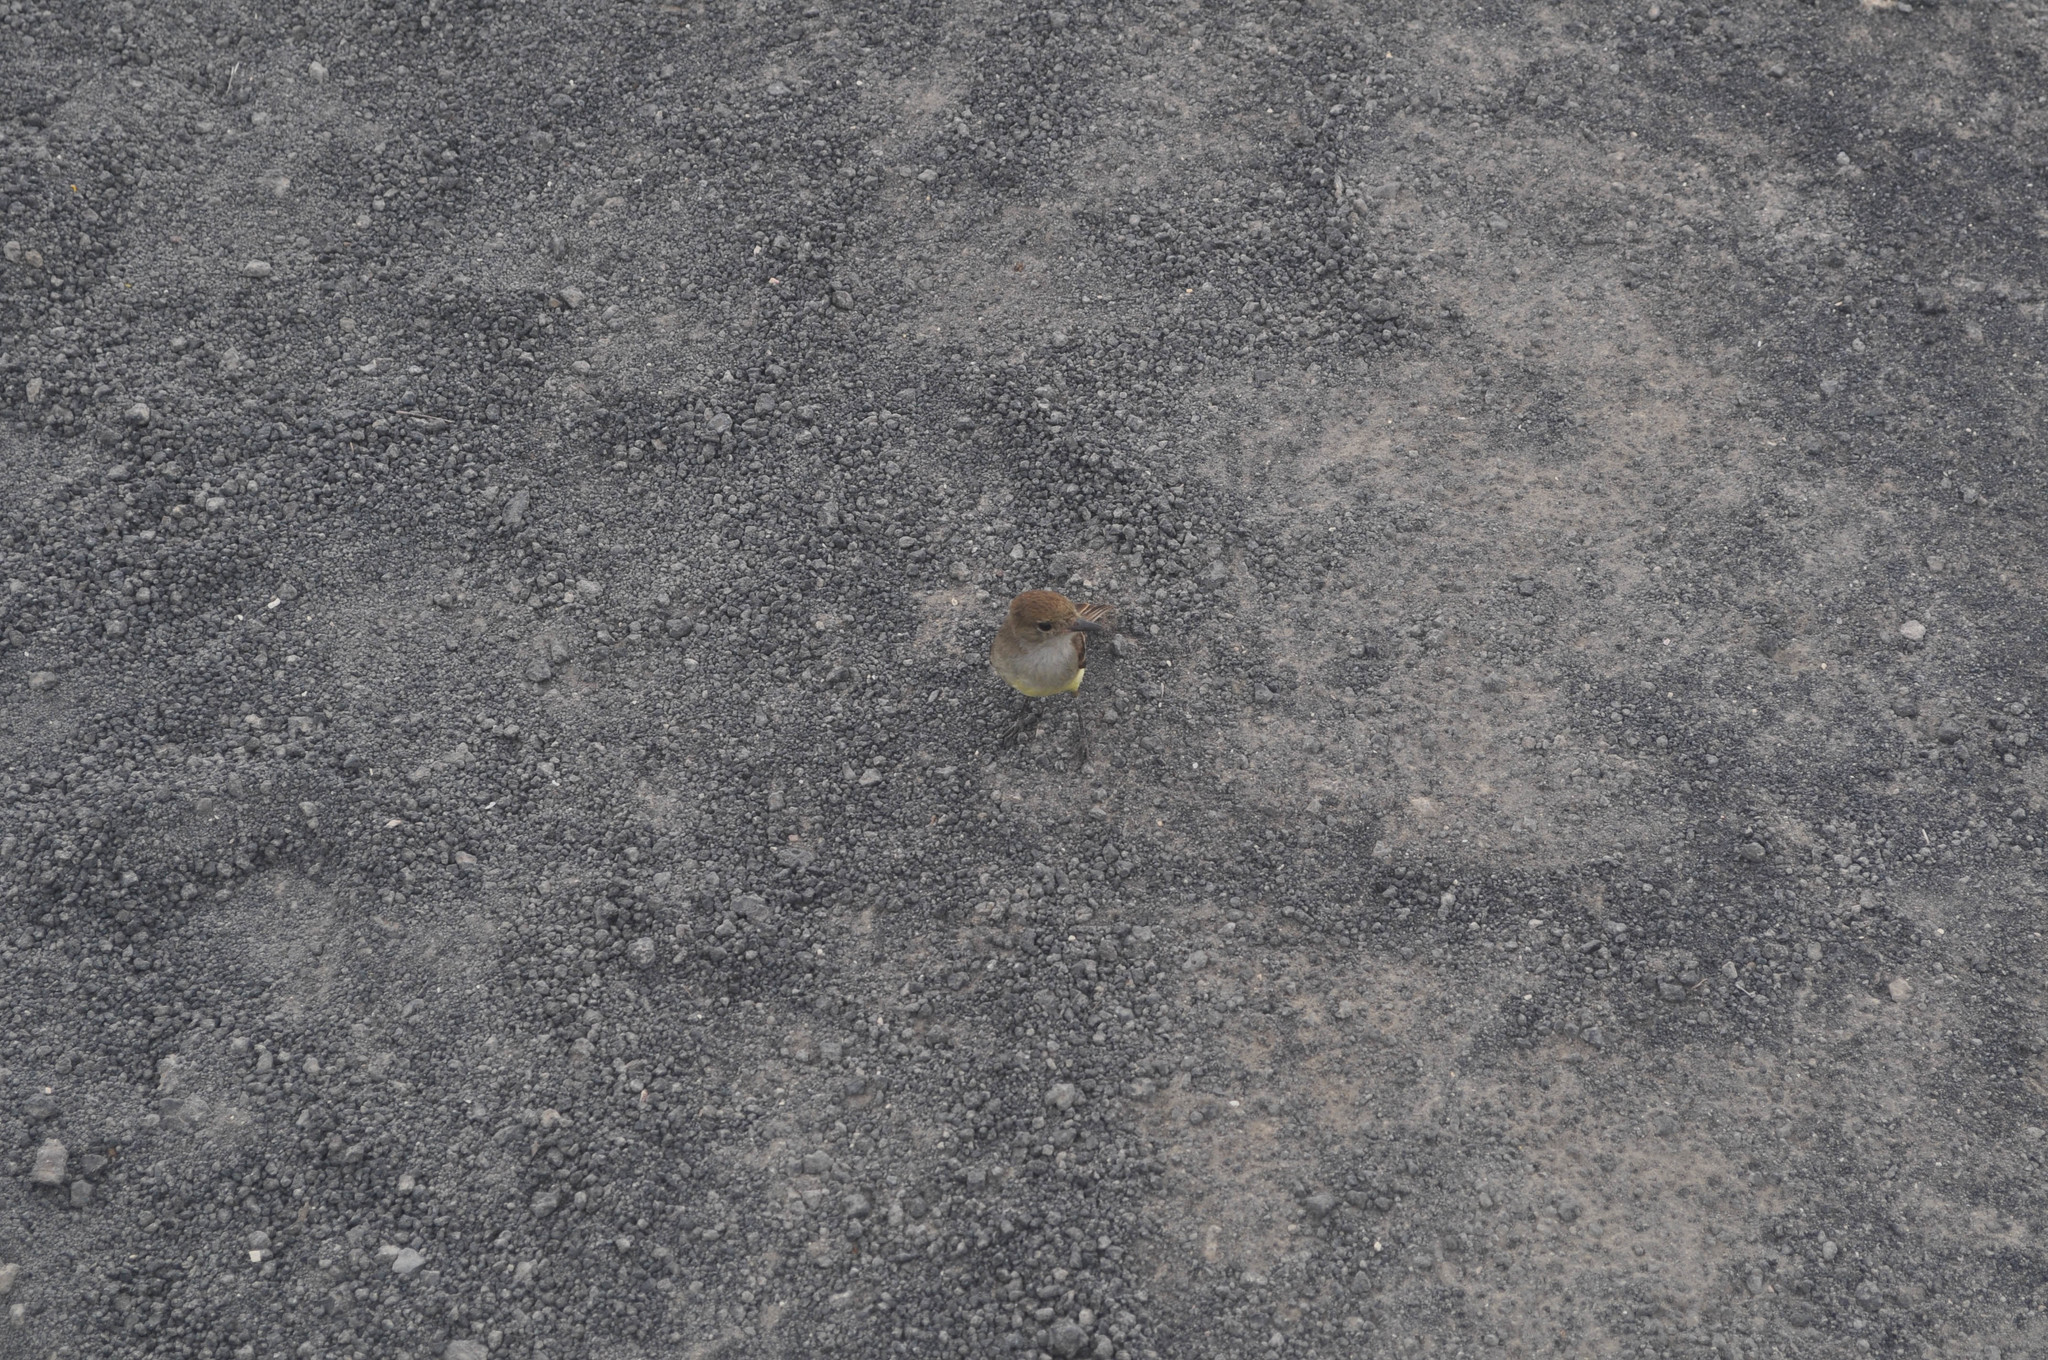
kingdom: Animalia
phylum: Chordata
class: Aves
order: Passeriformes
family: Tyrannidae
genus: Myiarchus
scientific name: Myiarchus magnirostris
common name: Galapagos flycatcher
